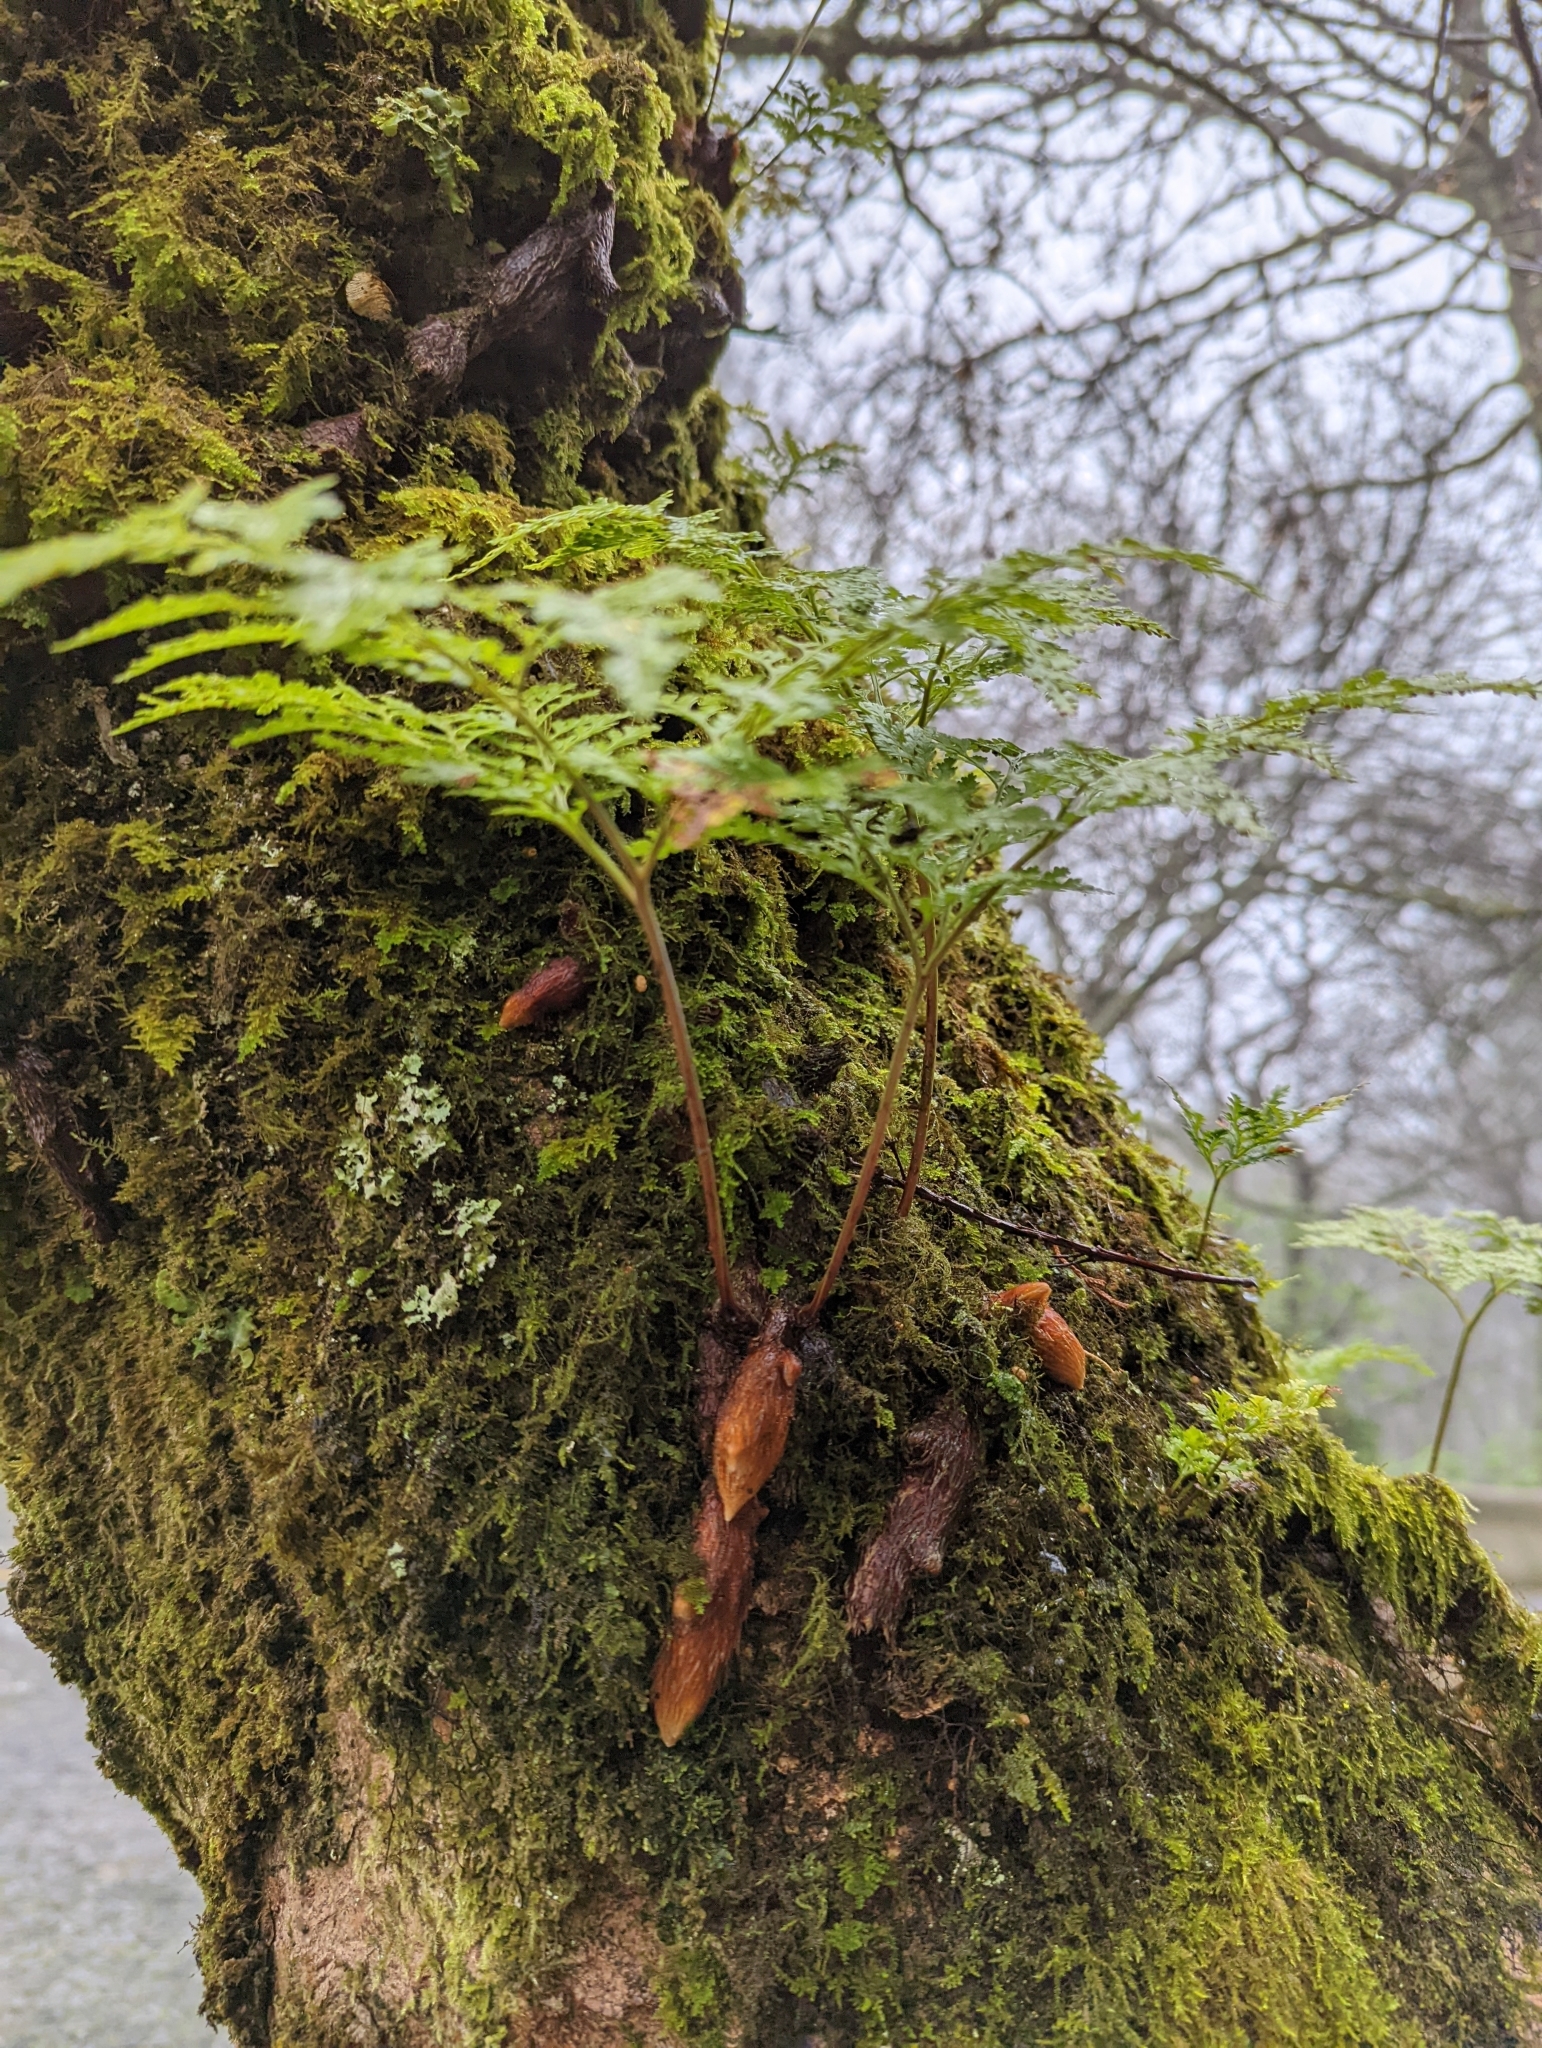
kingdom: Plantae
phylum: Tracheophyta
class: Polypodiopsida
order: Polypodiales
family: Davalliaceae
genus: Davallia
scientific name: Davallia canariensis
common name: Hare's-foot fern
